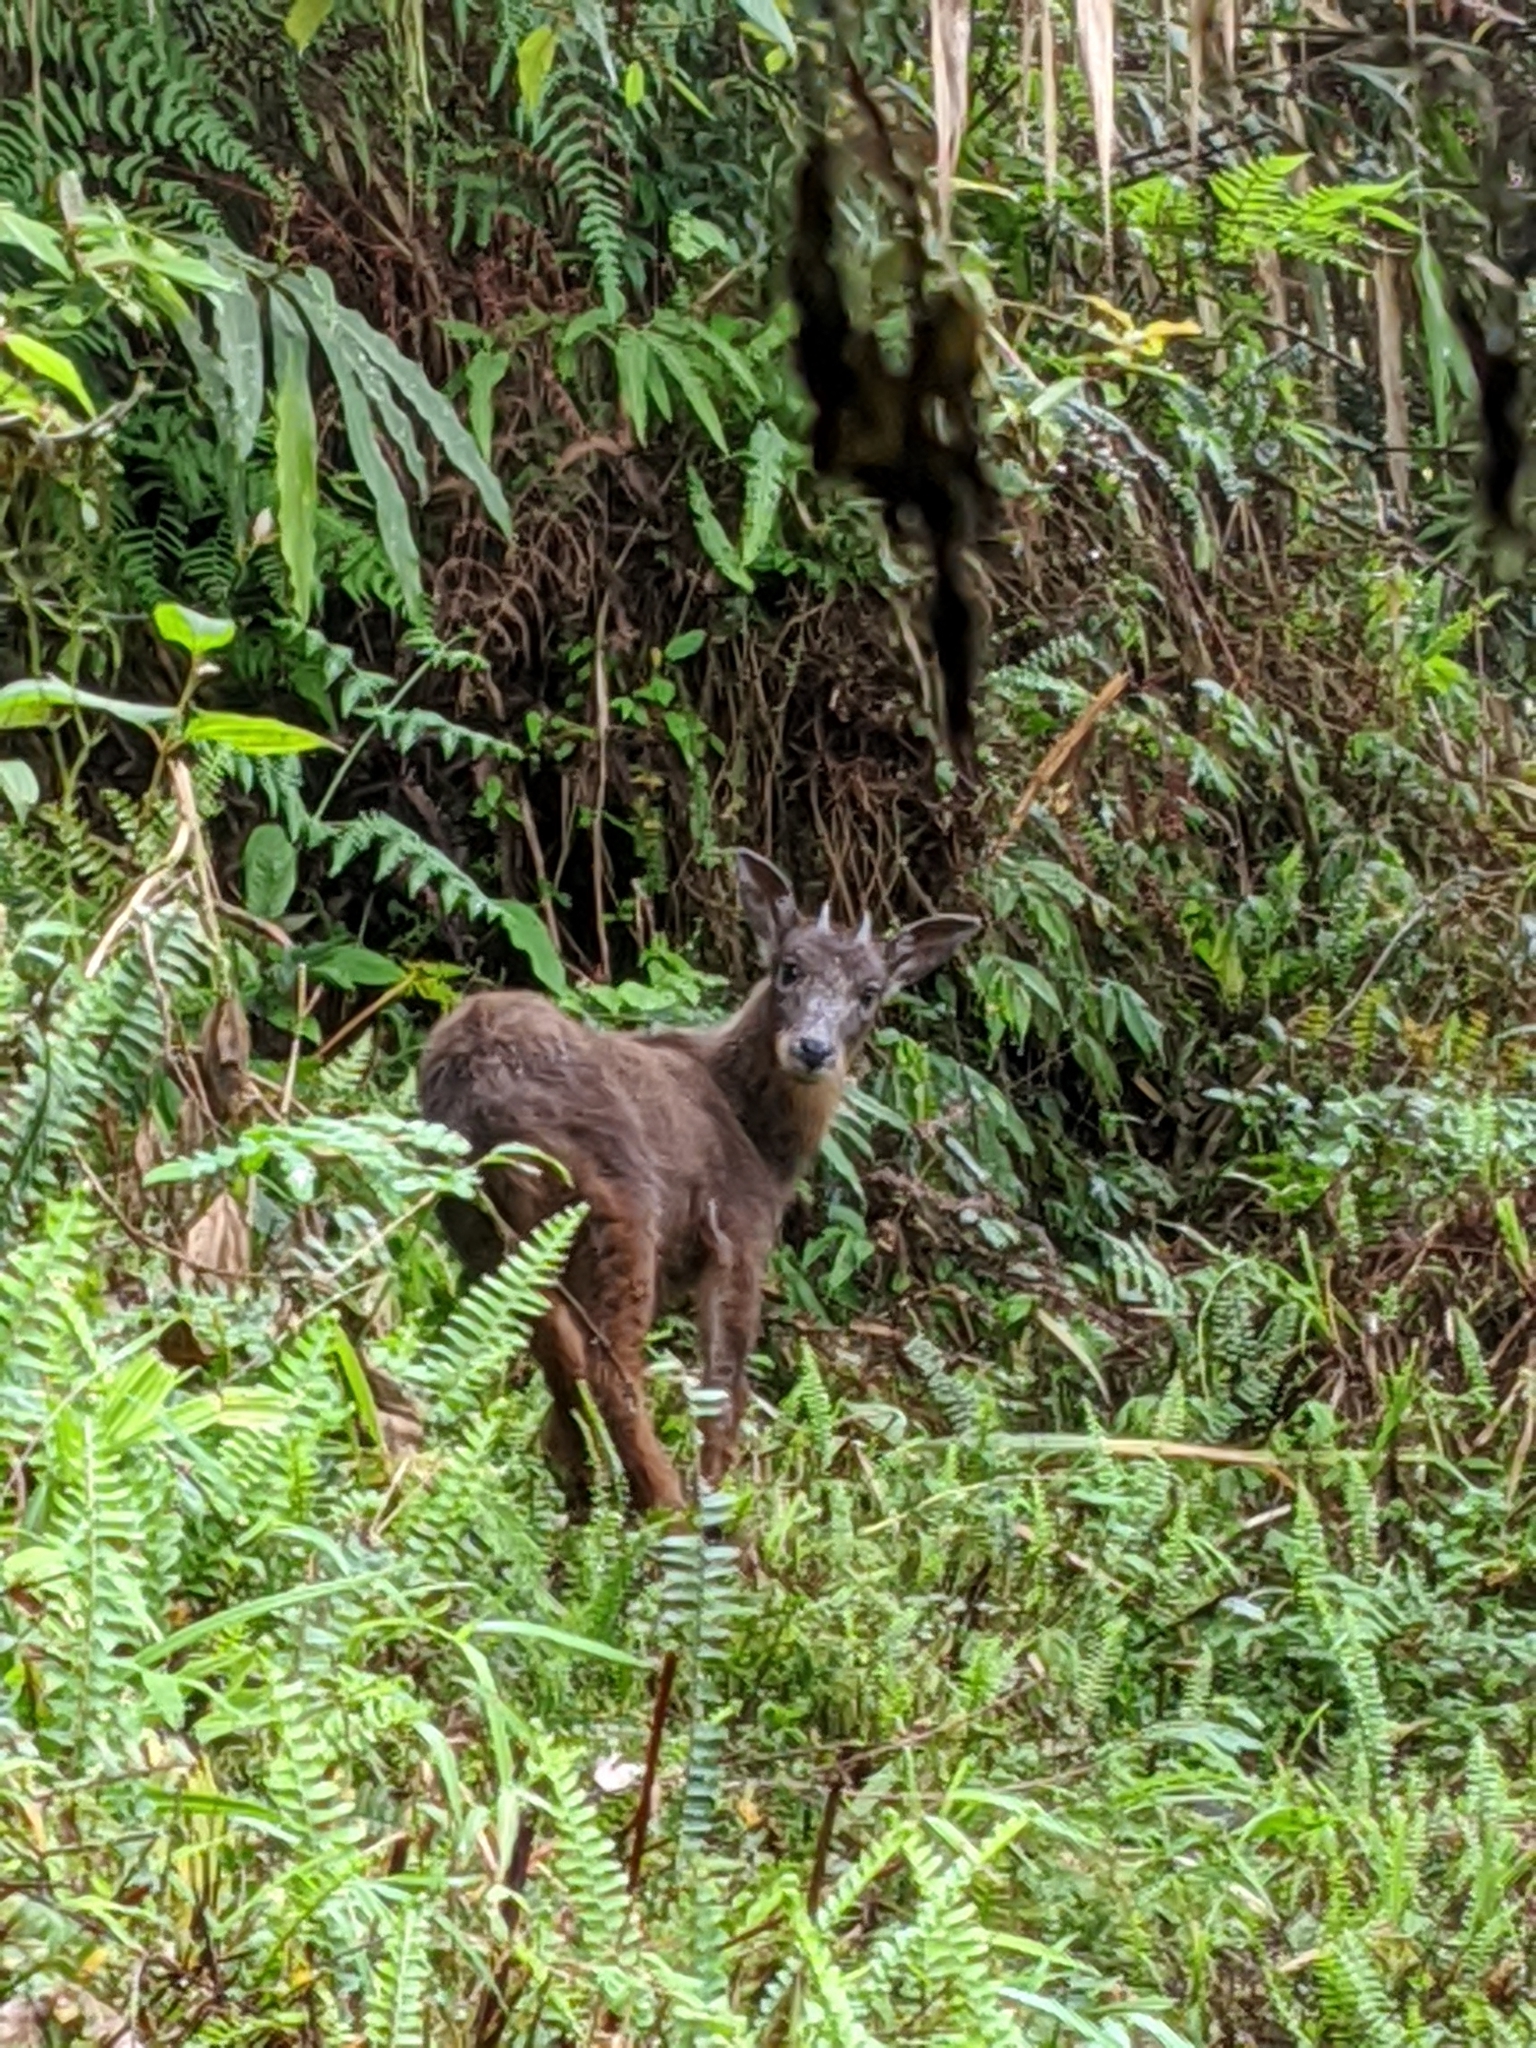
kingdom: Animalia
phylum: Chordata
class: Mammalia
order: Artiodactyla
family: Bovidae
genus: Capricornis
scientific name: Capricornis swinhoei
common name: Formosan serow
